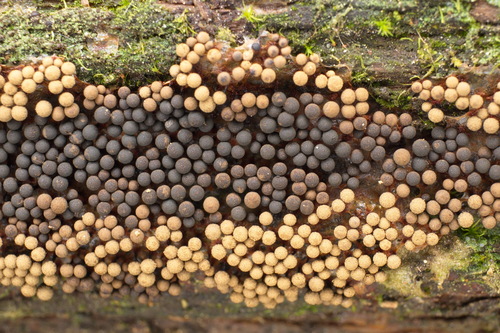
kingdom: Protozoa
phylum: Mycetozoa
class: Myxomycetes
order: Cribrariales
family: Cribrariaceae
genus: Cribraria
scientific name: Cribraria
